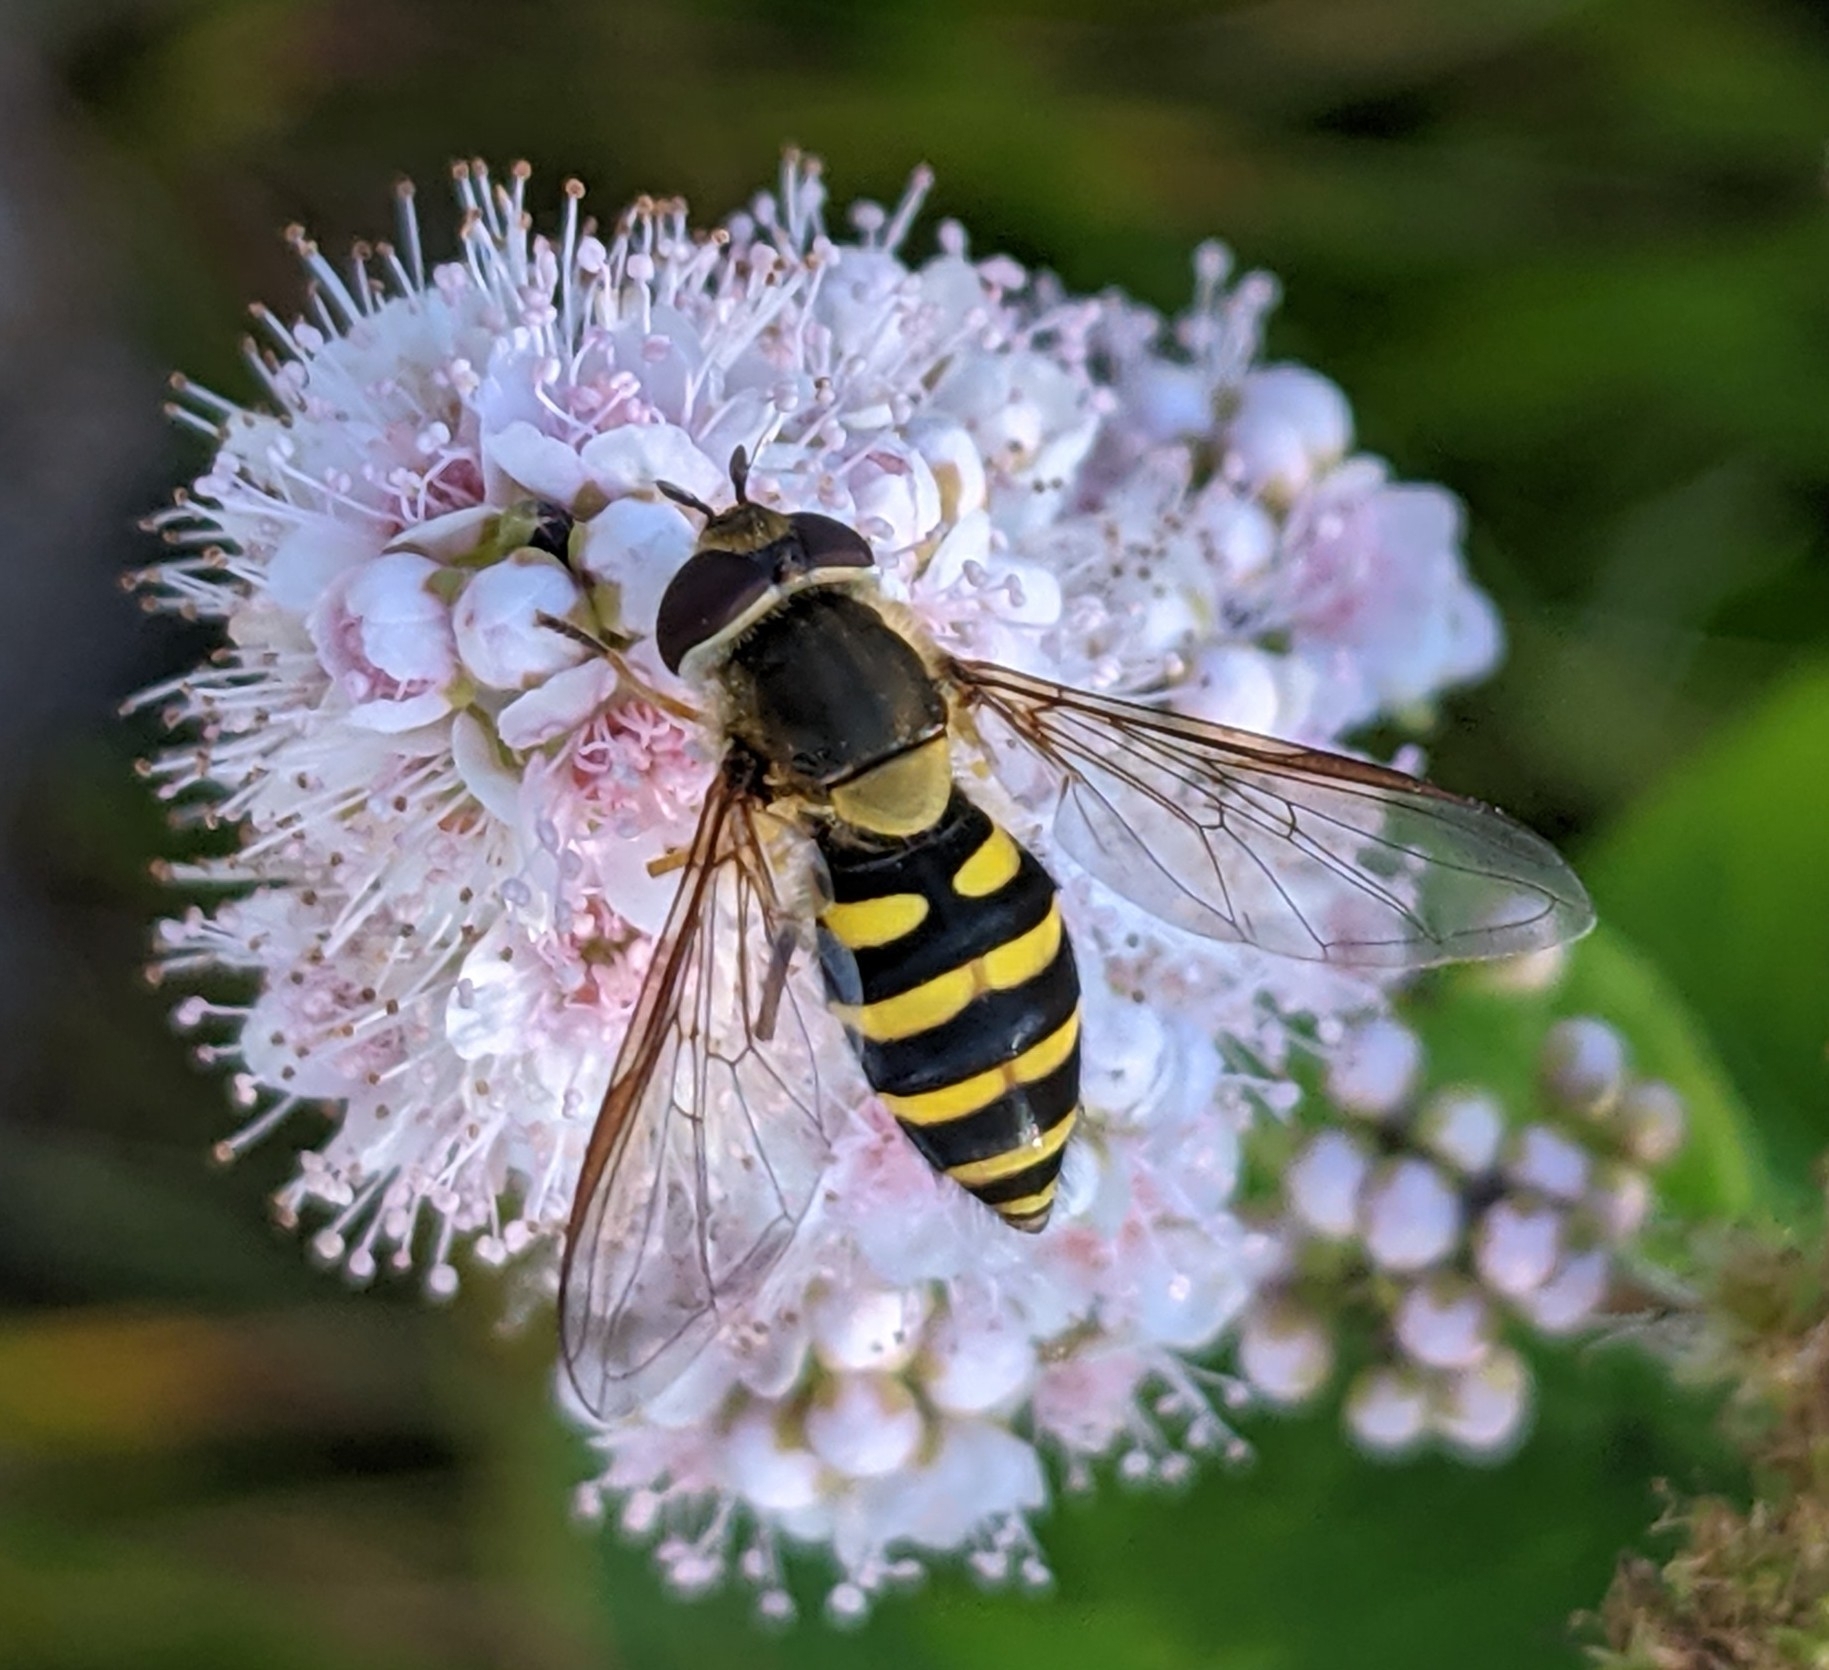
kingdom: Animalia
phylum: Arthropoda
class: Insecta
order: Diptera
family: Syrphidae
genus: Syrphus
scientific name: Syrphus
